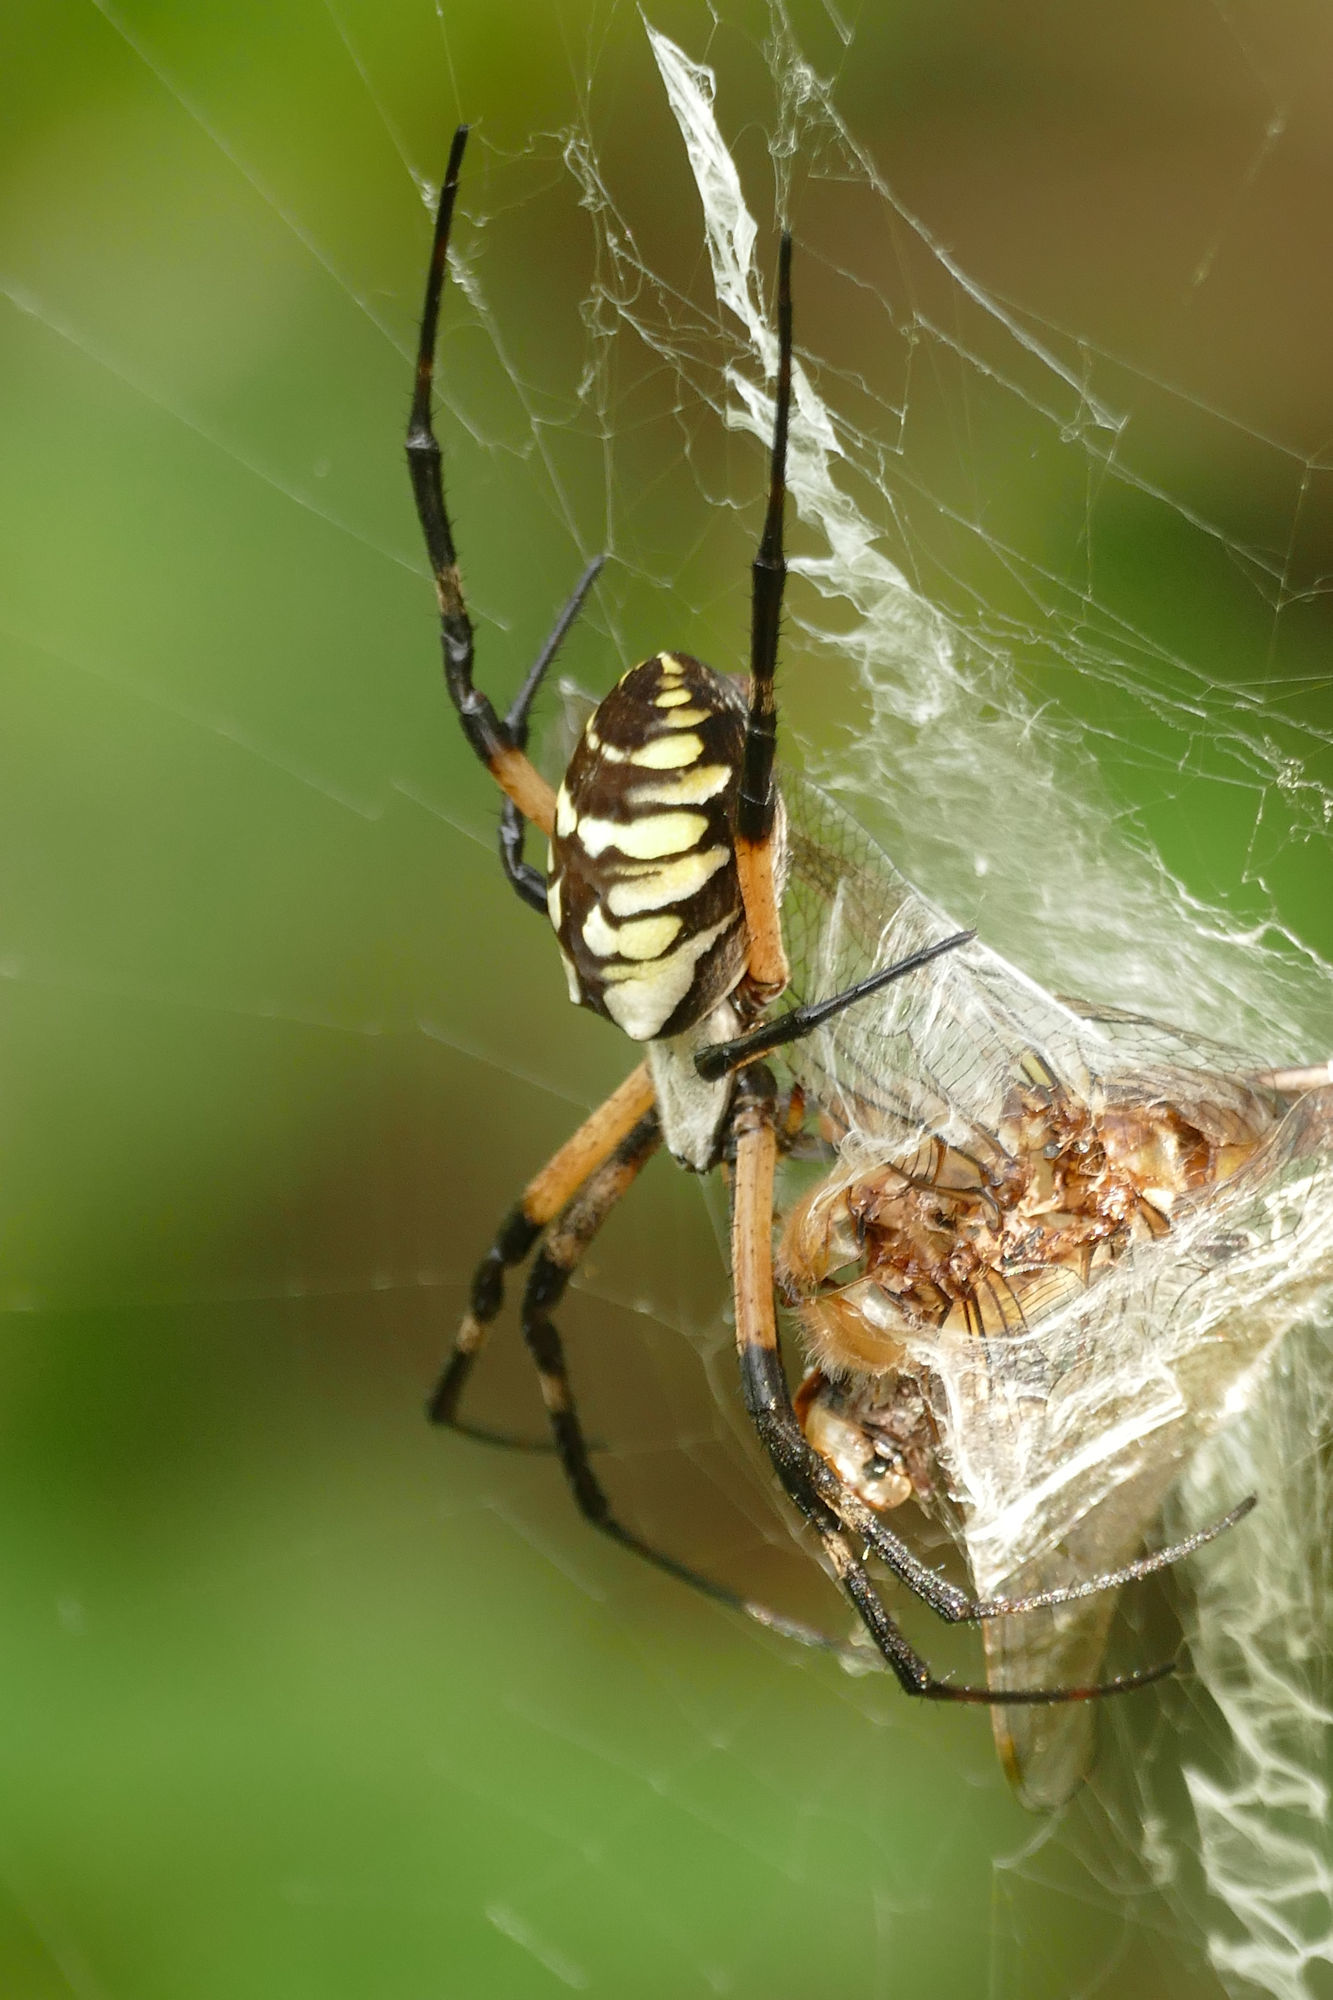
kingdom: Animalia
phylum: Arthropoda
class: Arachnida
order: Araneae
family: Araneidae
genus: Argiope
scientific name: Argiope aurantia
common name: Orb weavers
